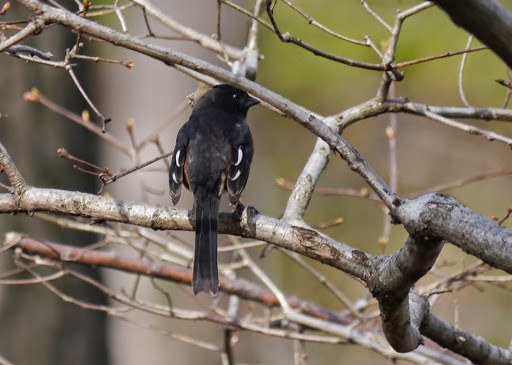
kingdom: Animalia
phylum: Chordata
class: Aves
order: Passeriformes
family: Passerellidae
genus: Pipilo
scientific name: Pipilo erythrophthalmus
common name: Eastern towhee
